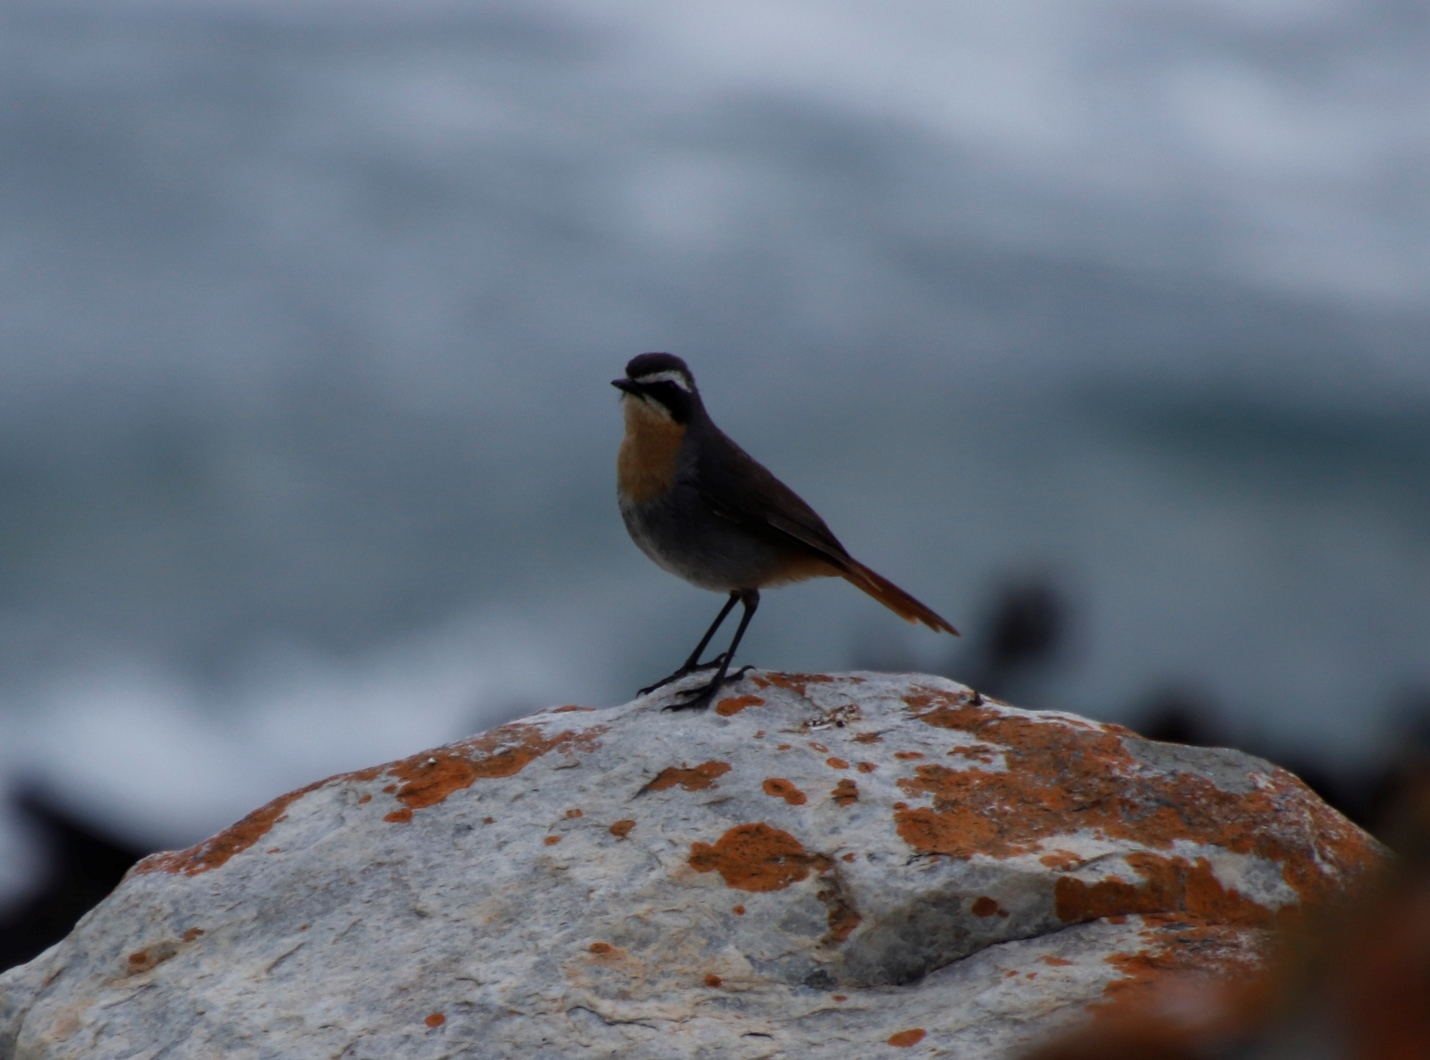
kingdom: Animalia
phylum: Chordata
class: Aves
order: Passeriformes
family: Muscicapidae
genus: Cossypha
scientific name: Cossypha caffra
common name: Cape robin-chat
